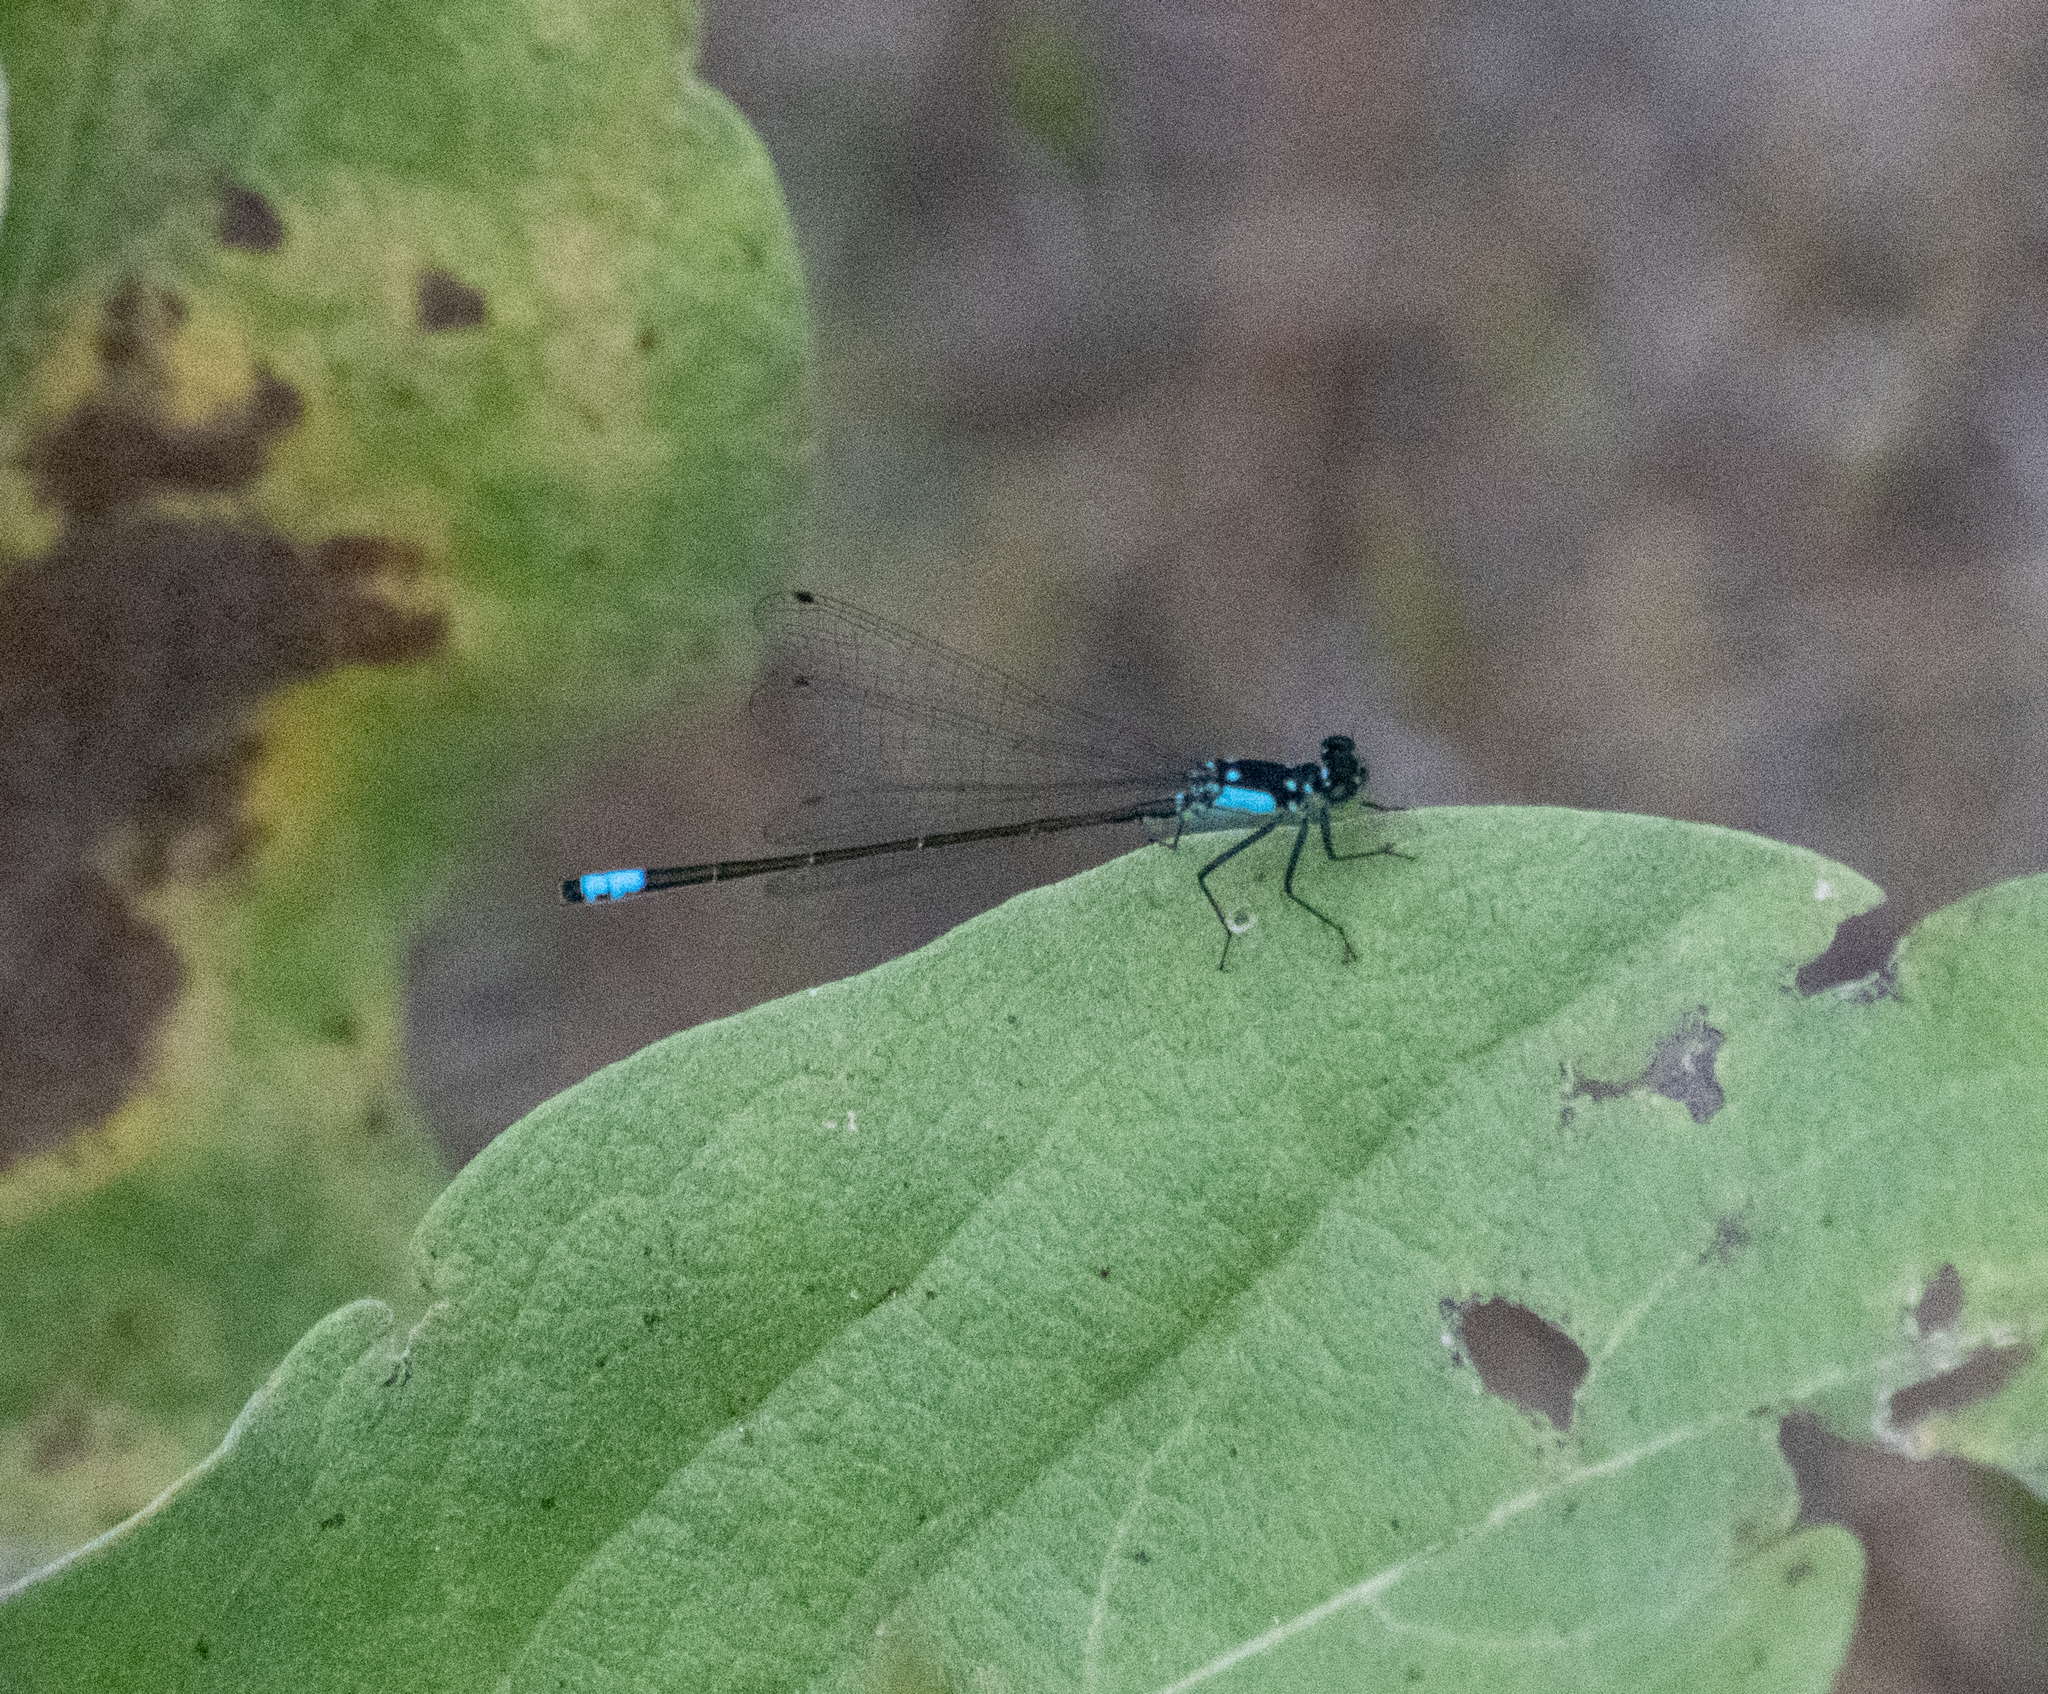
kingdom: Animalia
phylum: Arthropoda
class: Insecta
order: Odonata
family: Coenagrionidae
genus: Ischnura
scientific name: Ischnura cervula
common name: Pacific forktail
